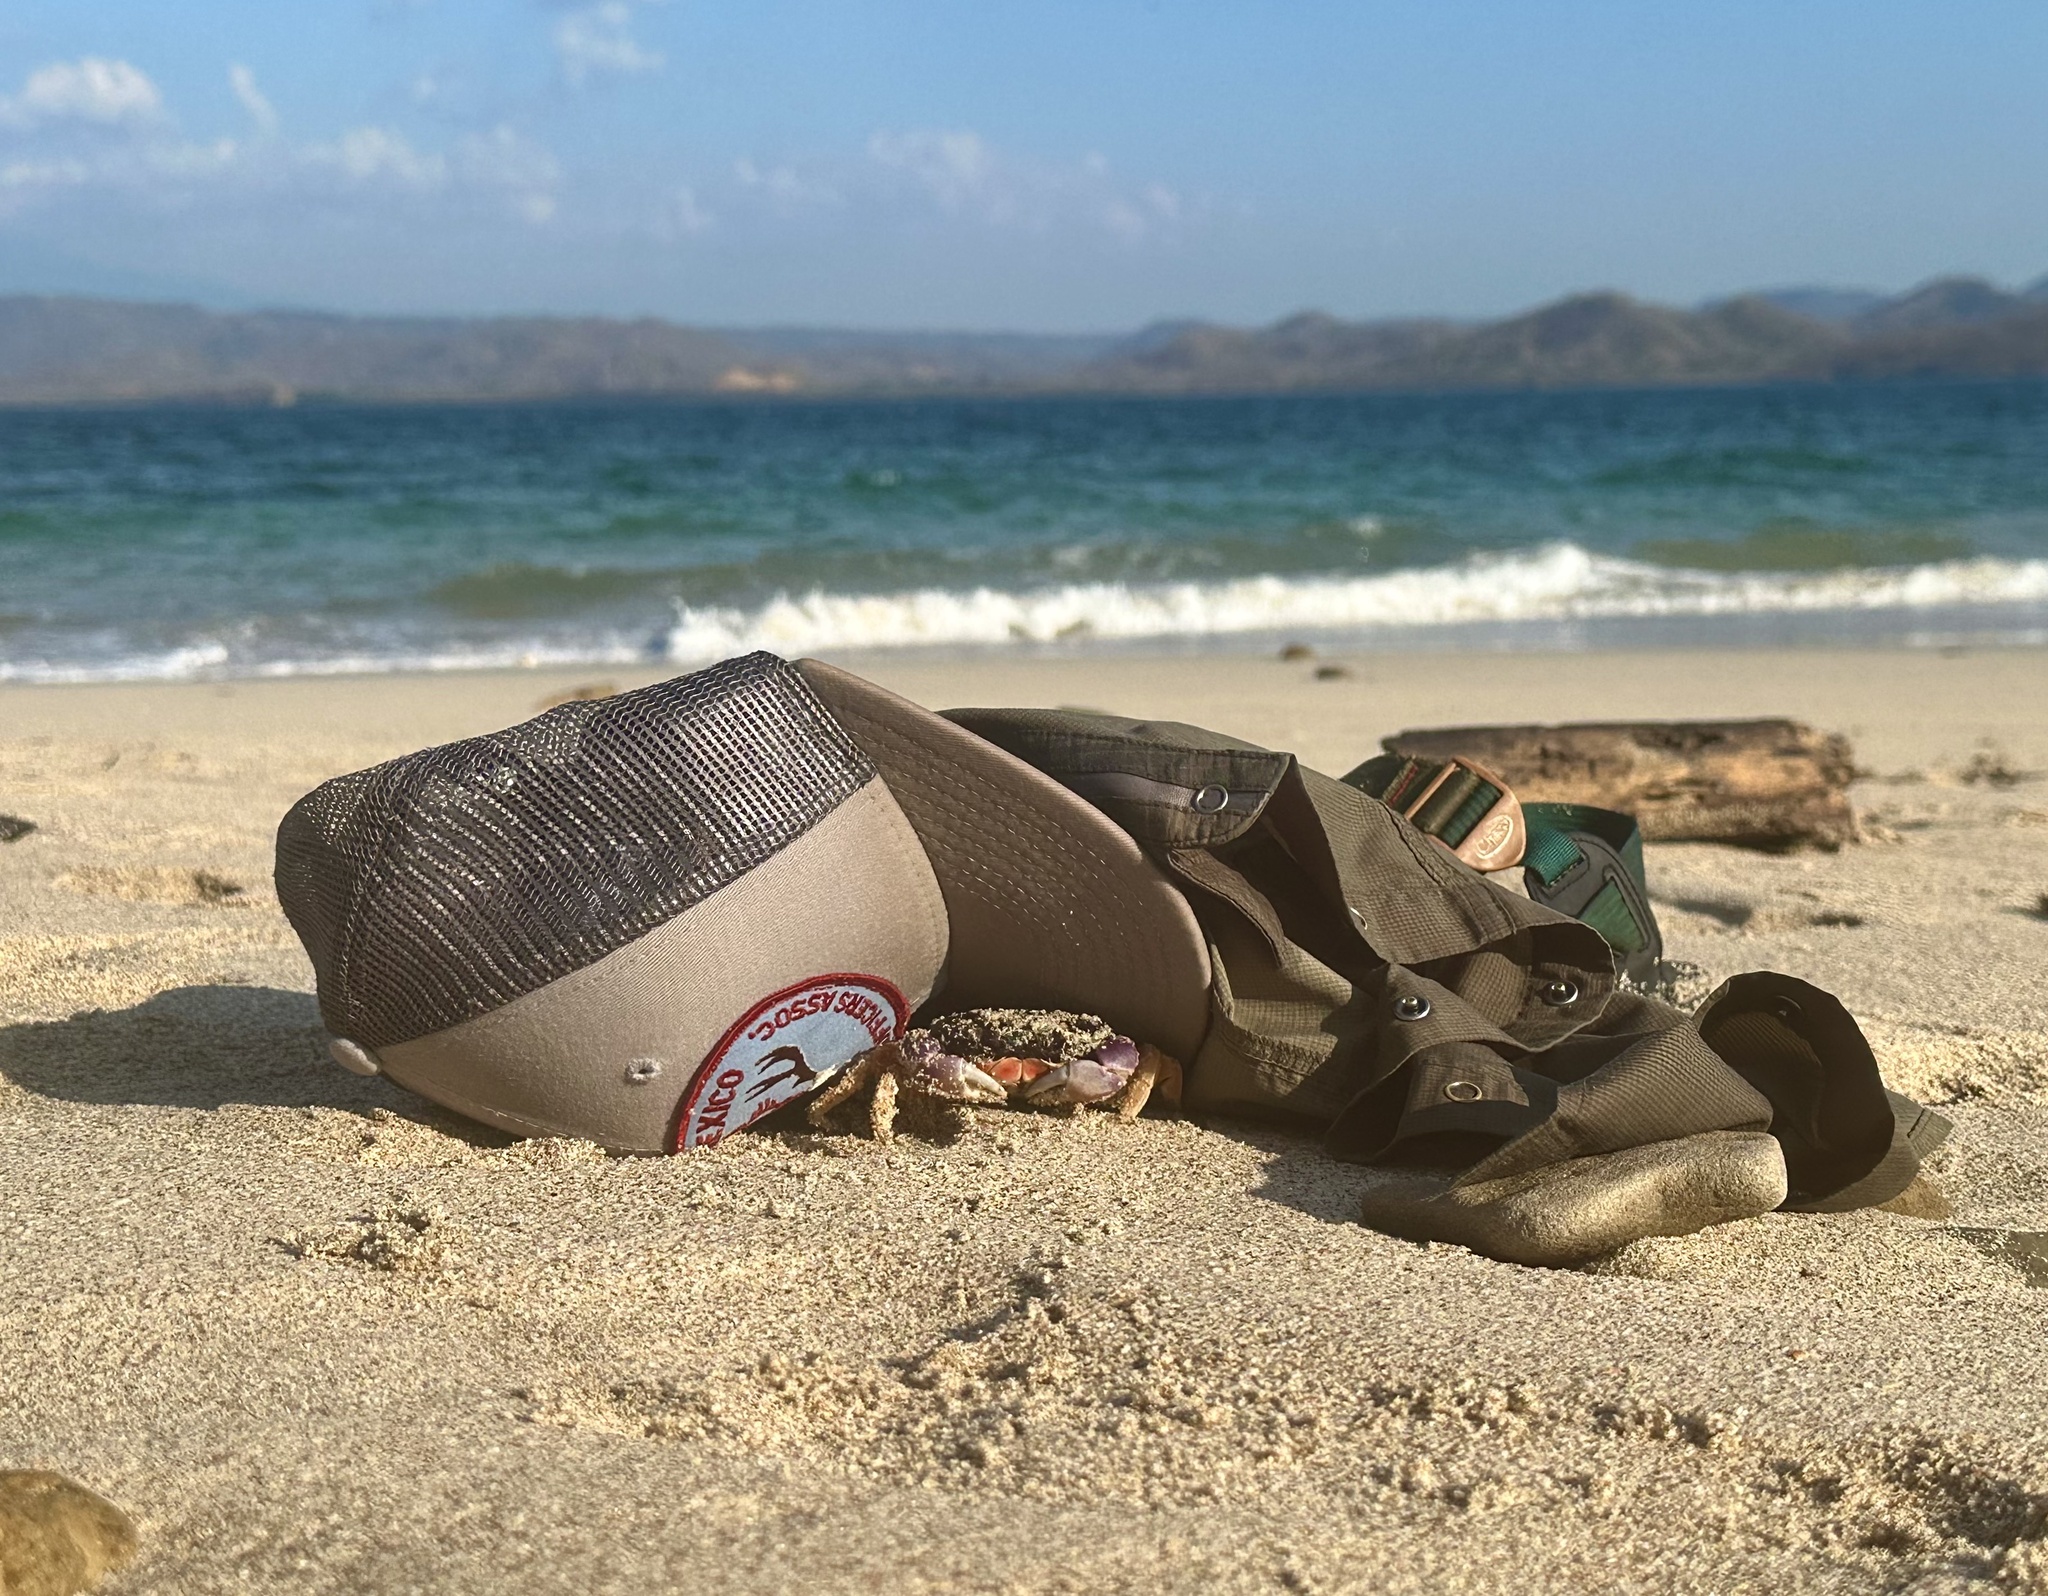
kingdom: Animalia
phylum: Arthropoda
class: Malacostraca
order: Decapoda
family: Gecarcinidae
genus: Gecarcinus
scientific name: Gecarcinus quadratus
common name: Halloween crab
